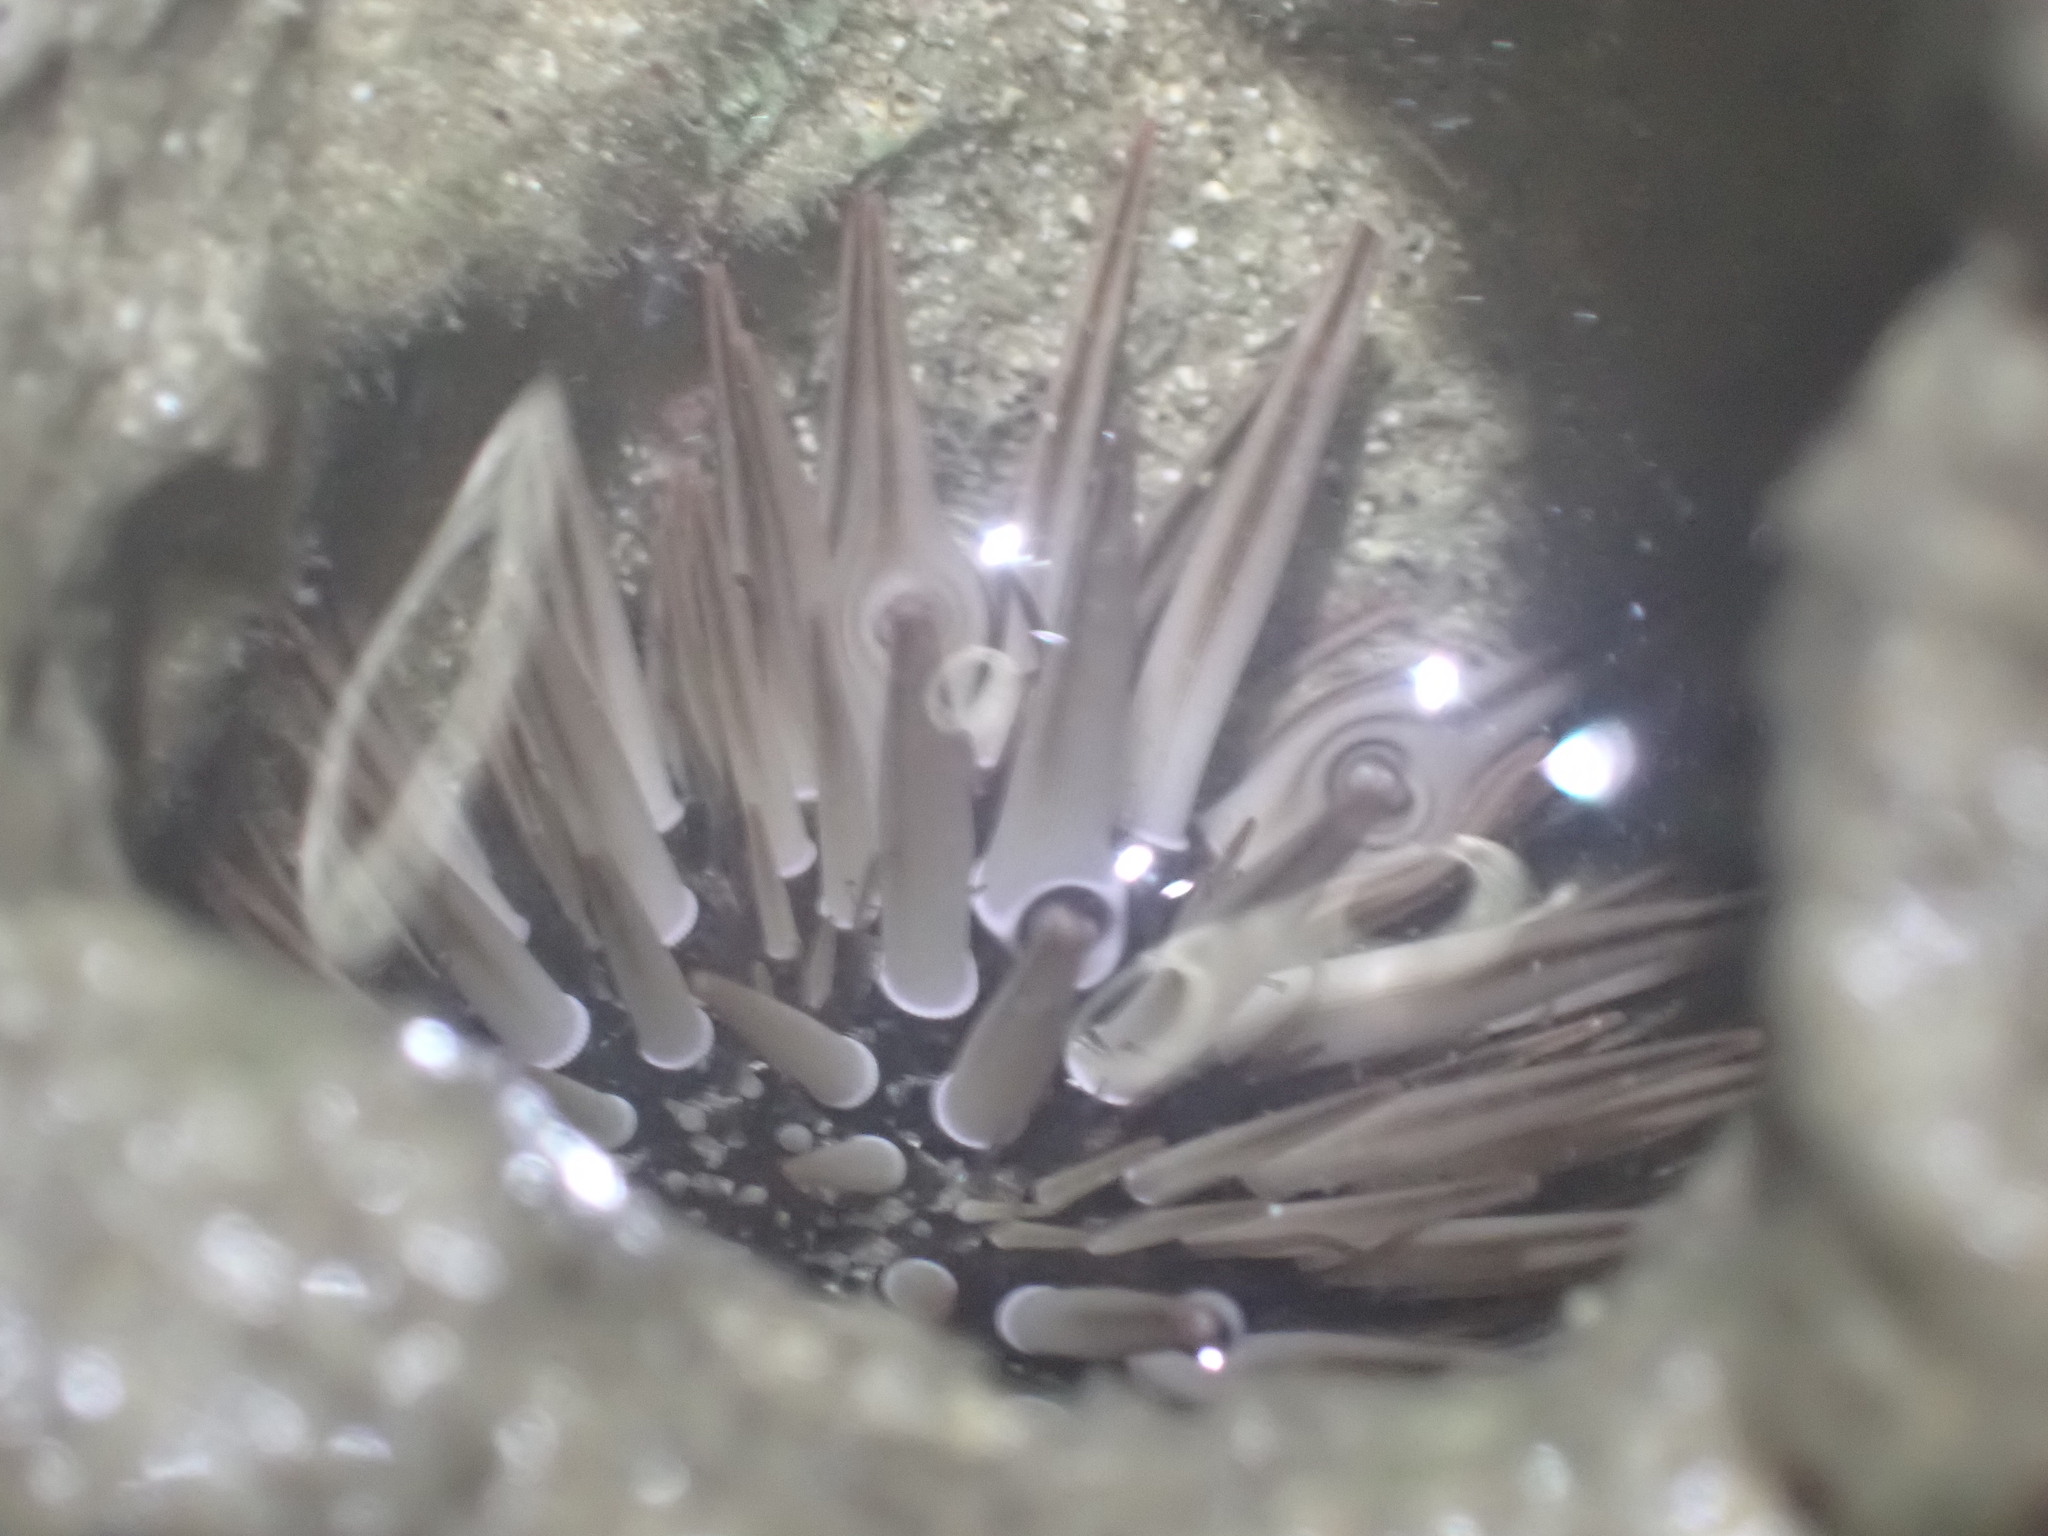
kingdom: Animalia
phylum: Echinodermata
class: Echinoidea
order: Camarodonta
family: Echinometridae
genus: Echinometra
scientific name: Echinometra mathaei
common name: Rock-boring urchin
